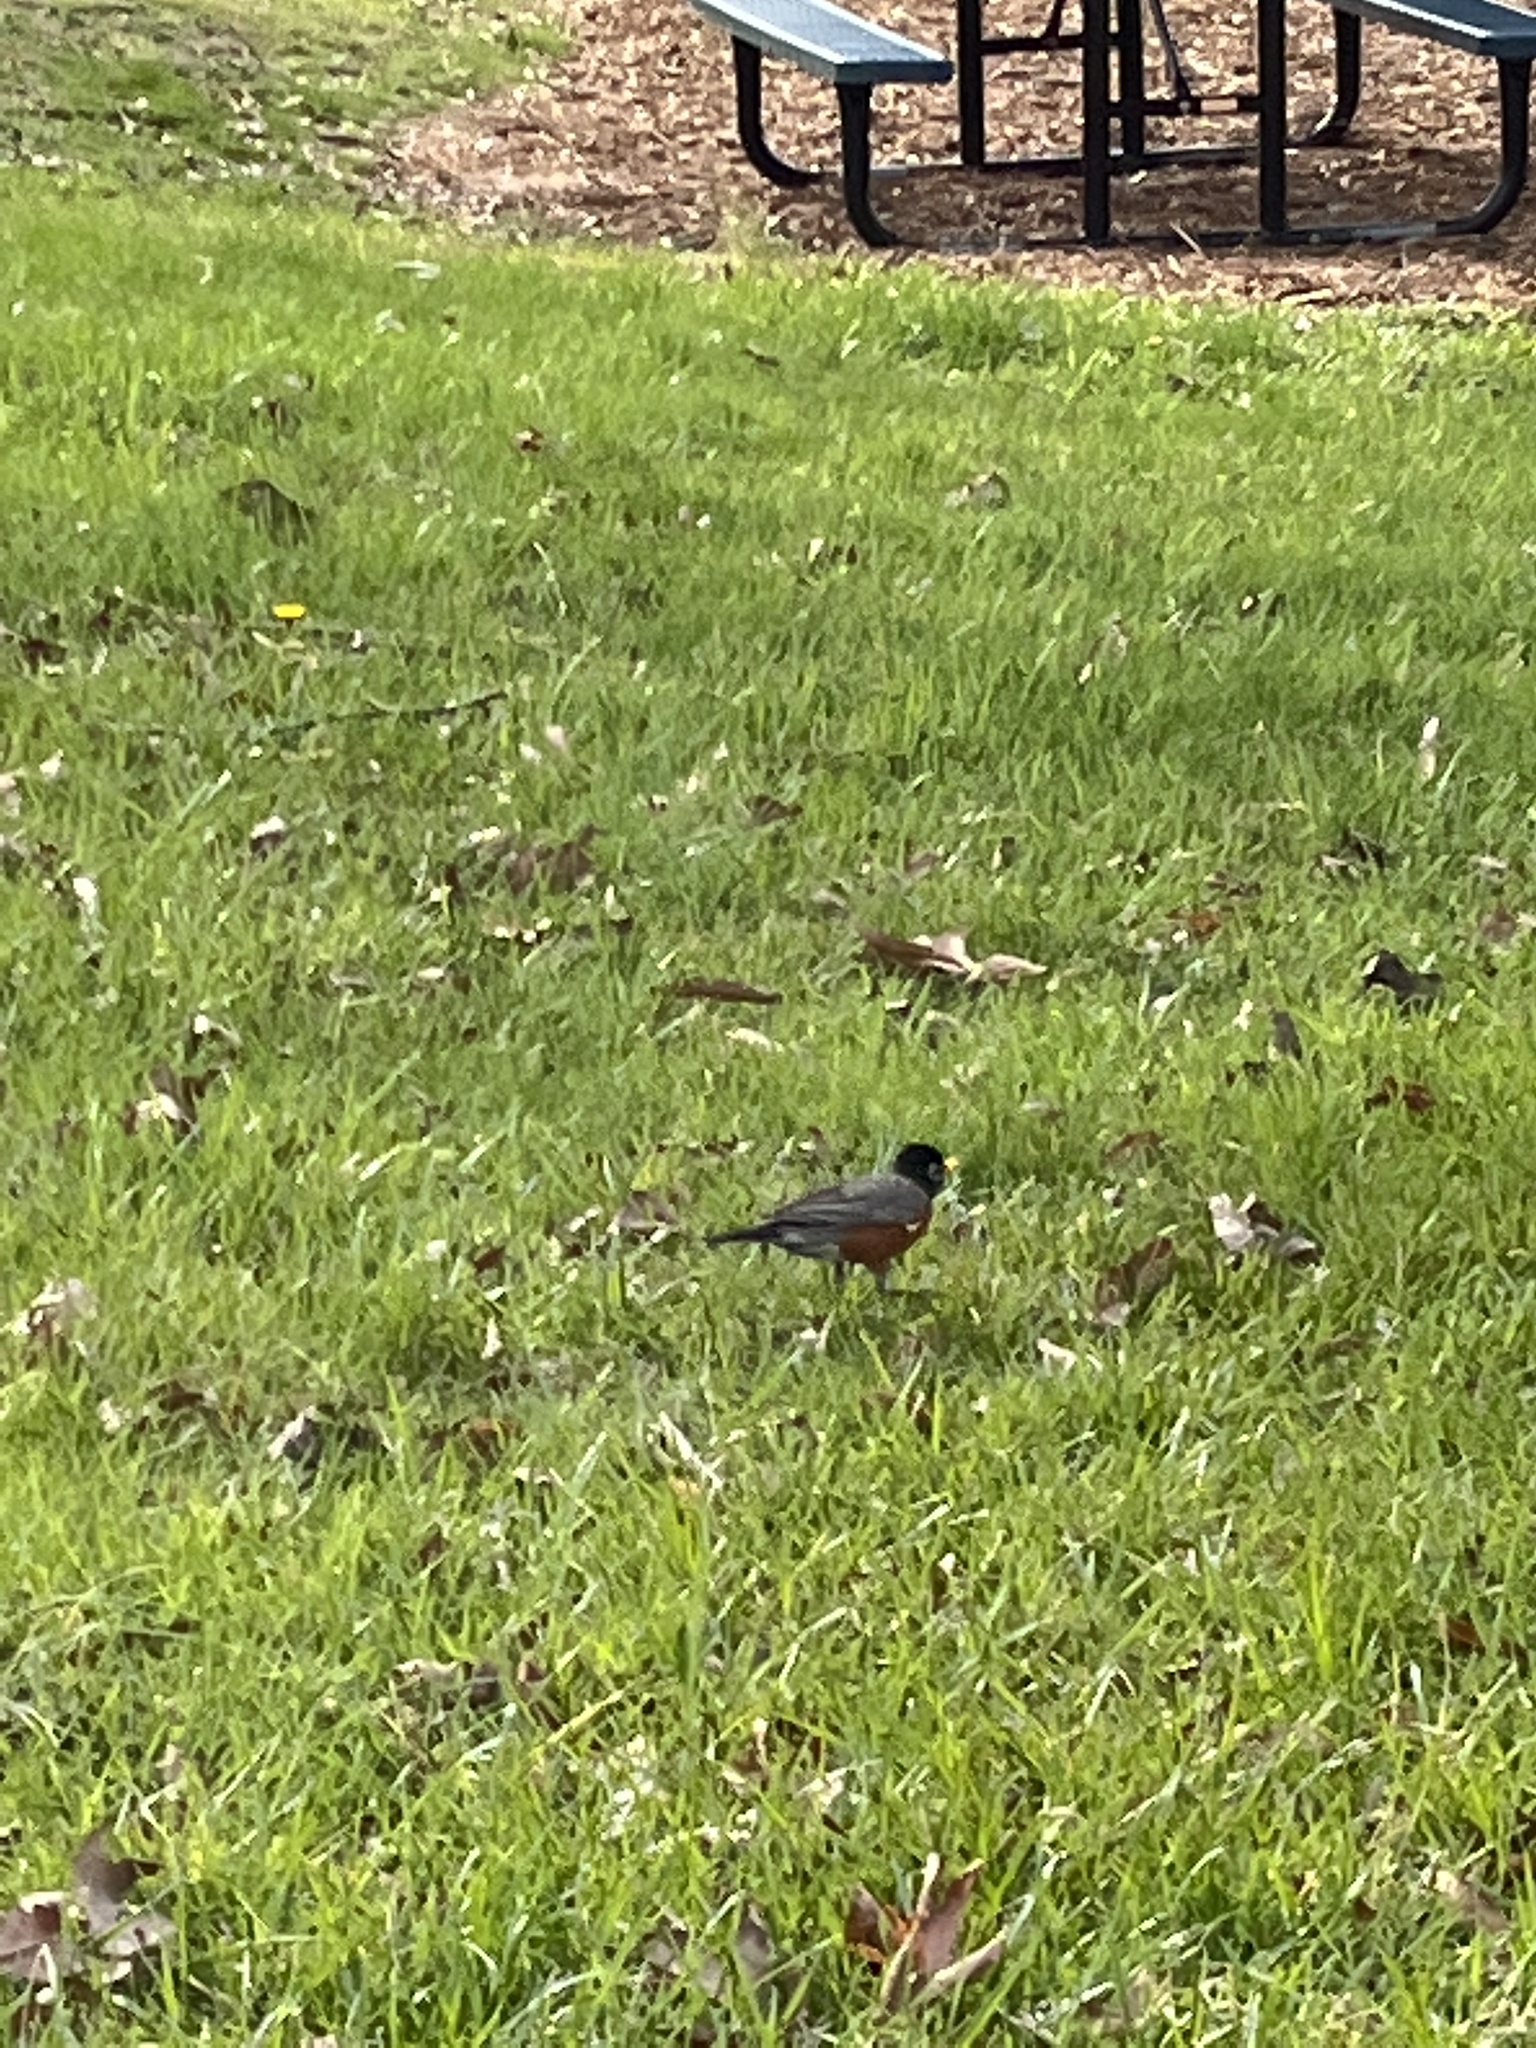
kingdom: Animalia
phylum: Chordata
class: Aves
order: Passeriformes
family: Turdidae
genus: Turdus
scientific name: Turdus migratorius
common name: American robin
